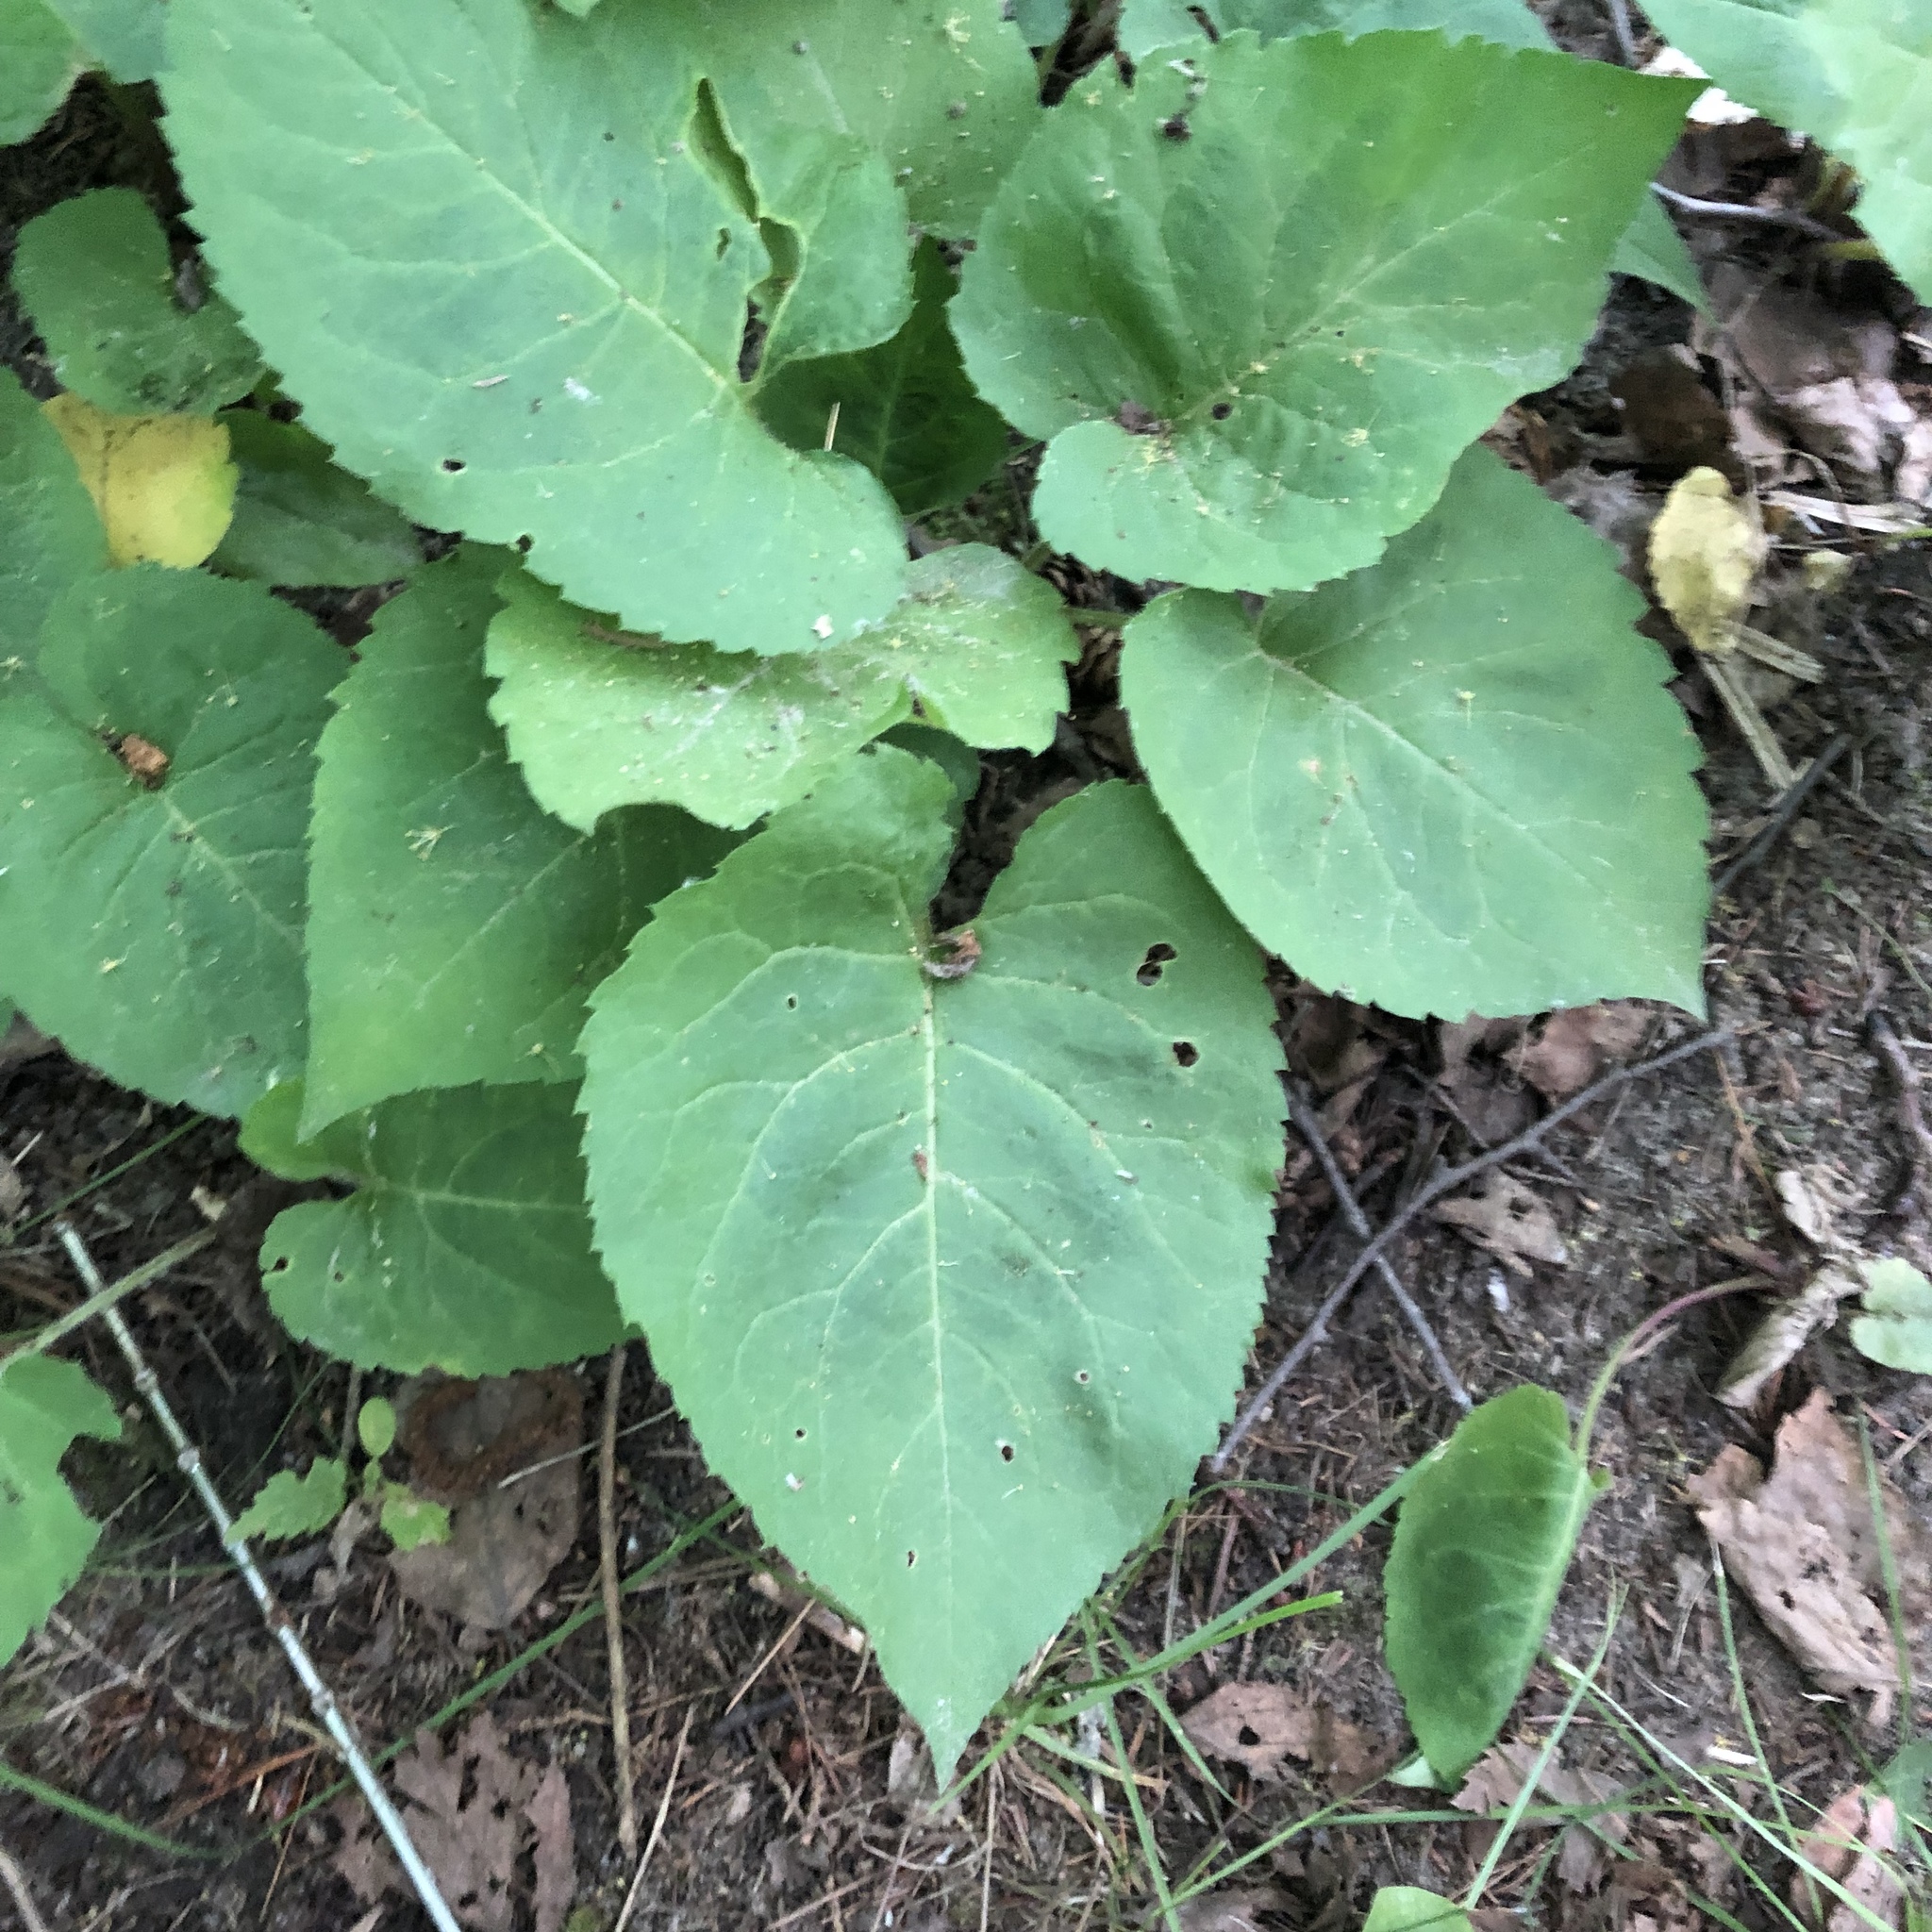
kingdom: Plantae
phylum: Tracheophyta
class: Magnoliopsida
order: Asterales
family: Asteraceae
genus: Eurybia
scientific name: Eurybia macrophylla
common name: Big-leaved aster
